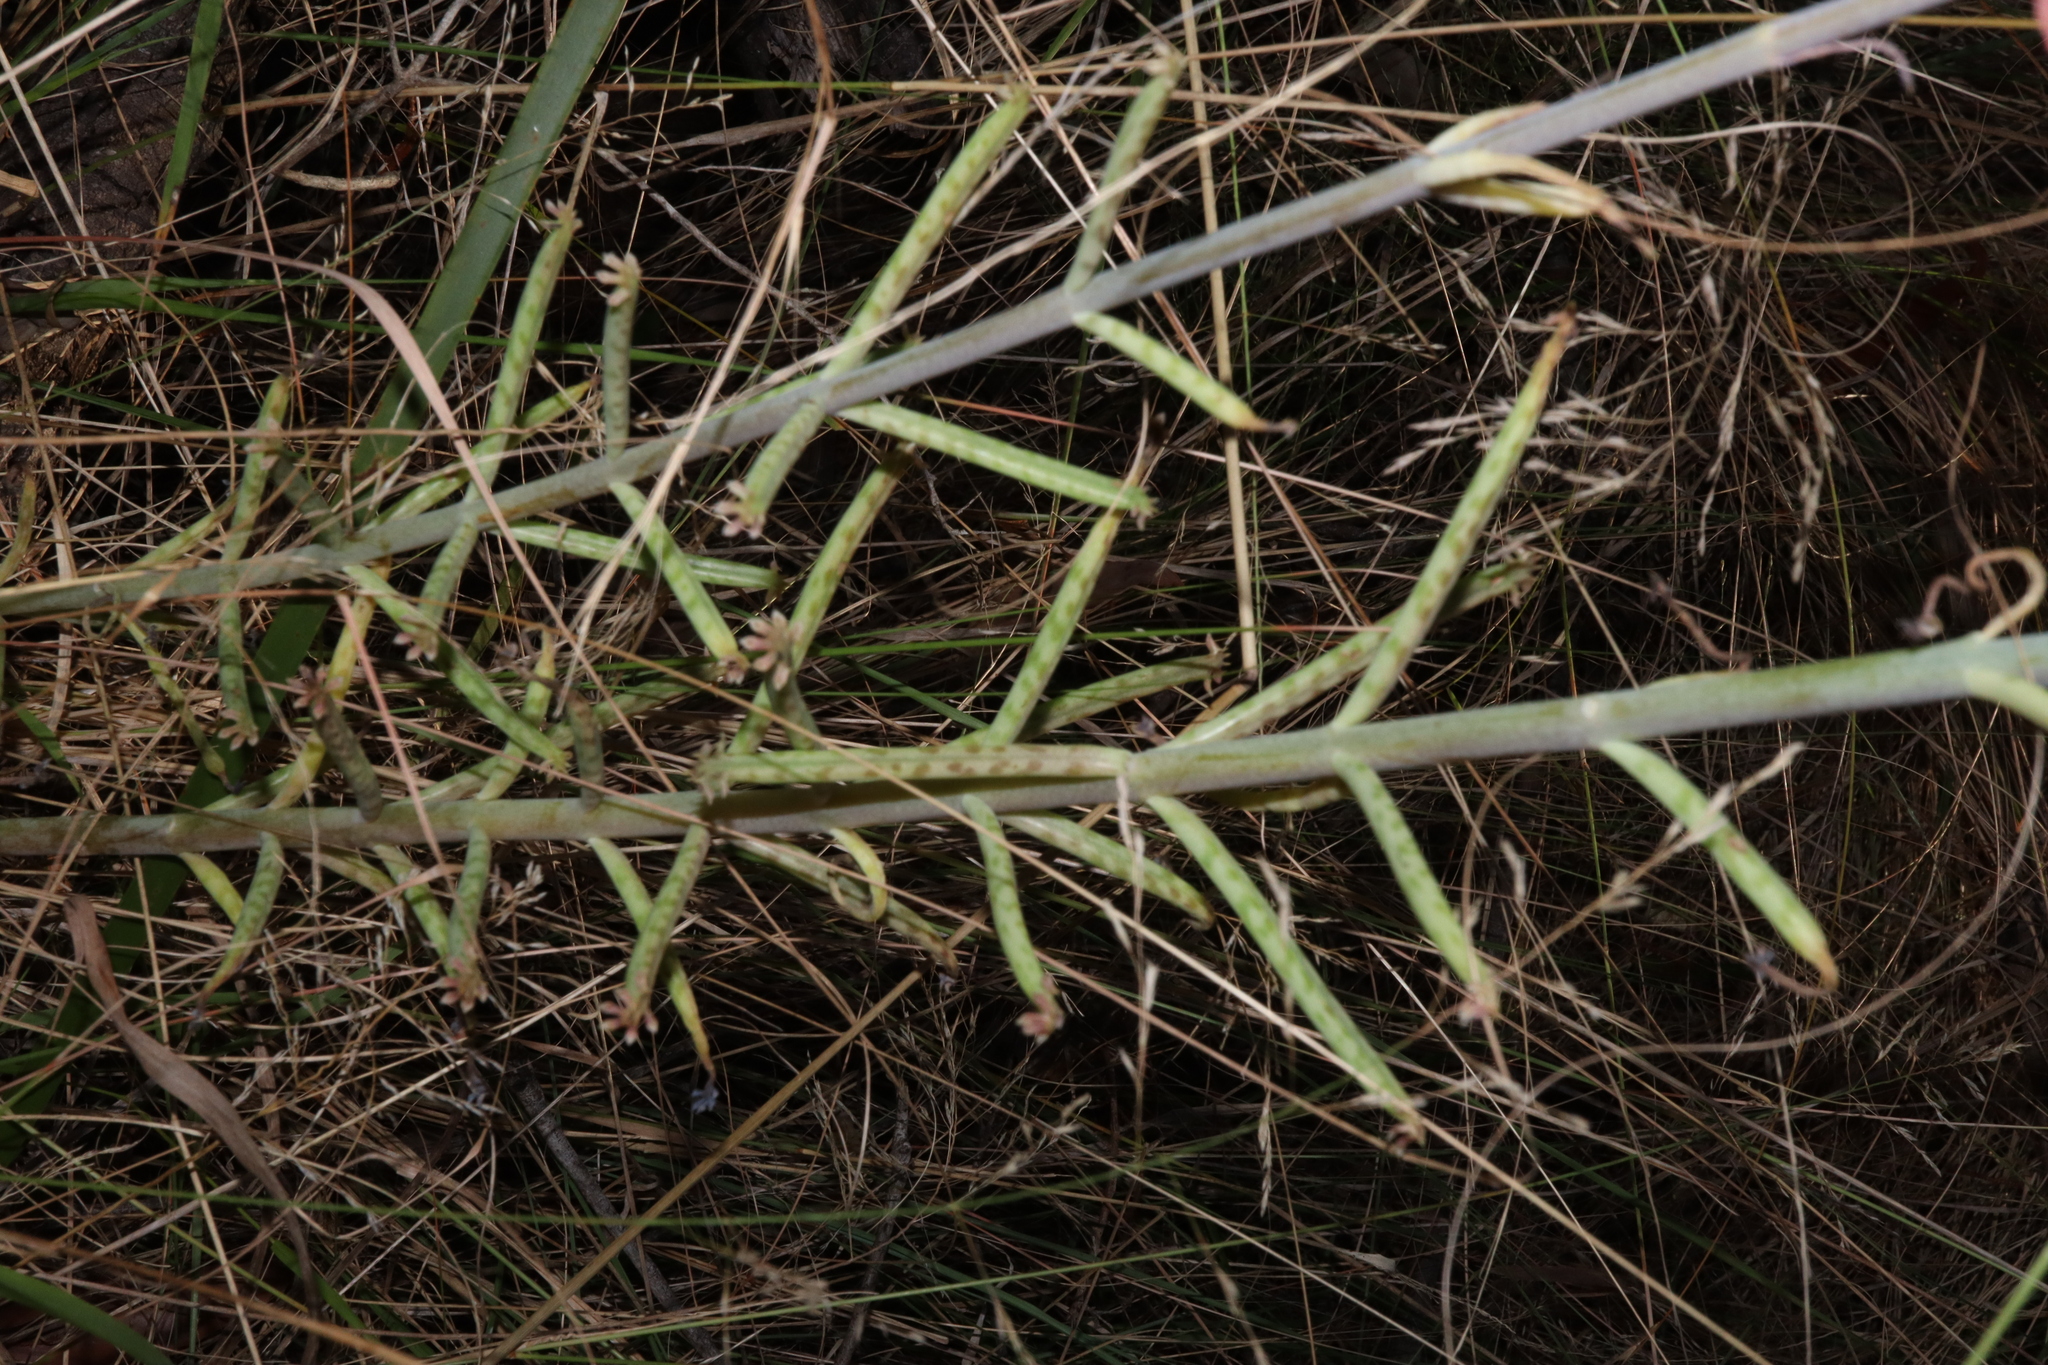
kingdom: Plantae
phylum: Tracheophyta
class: Magnoliopsida
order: Saxifragales
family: Crassulaceae
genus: Kalanchoe
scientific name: Kalanchoe delagoensis
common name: Chandelier plant
